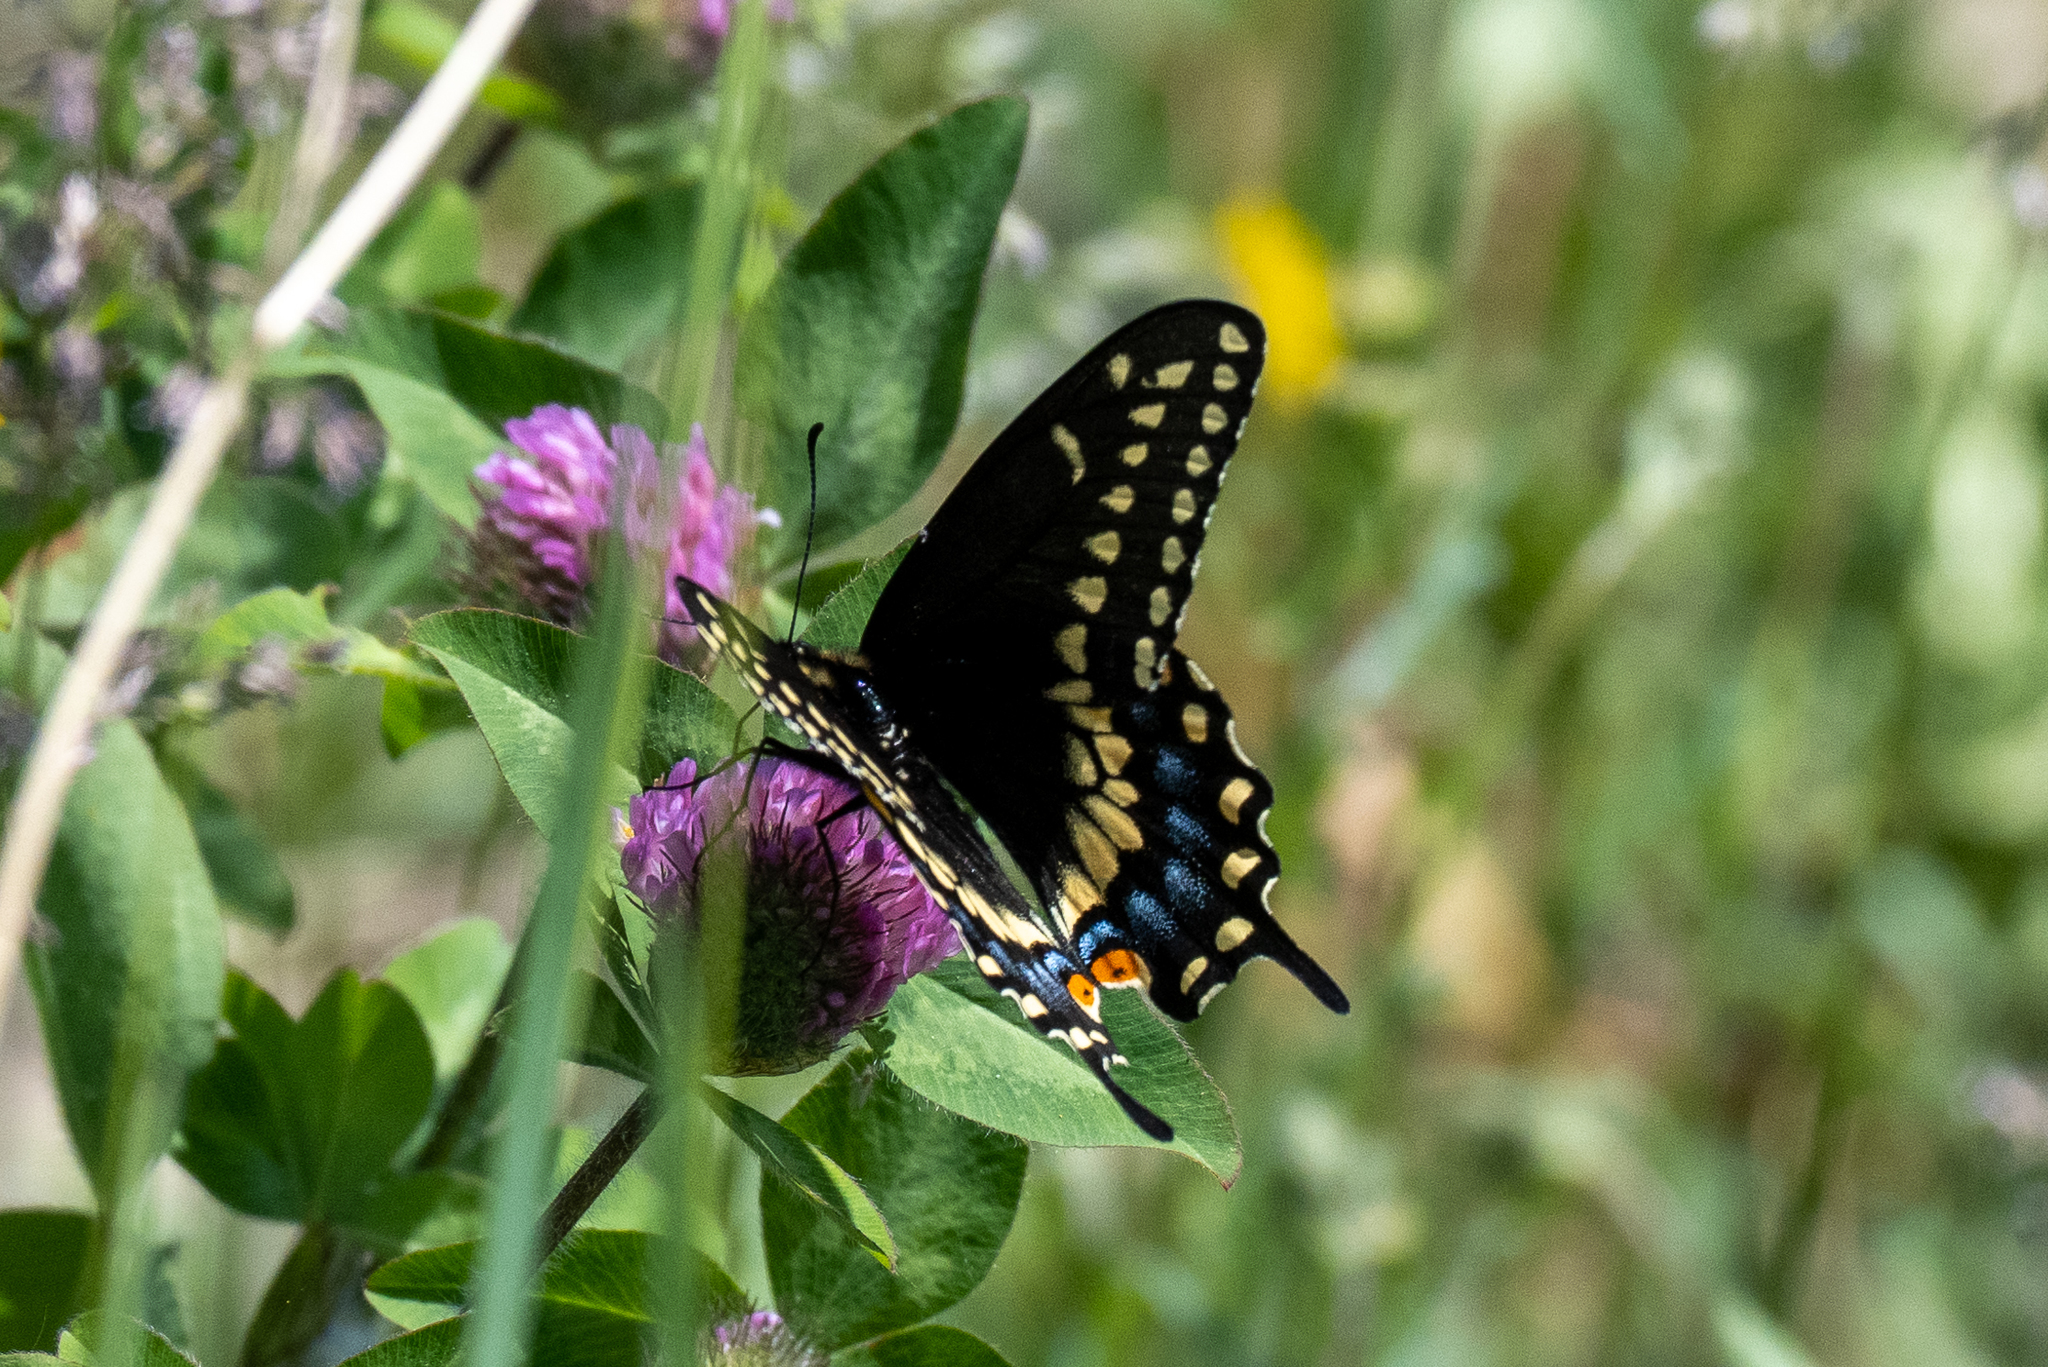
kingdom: Animalia
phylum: Arthropoda
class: Insecta
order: Lepidoptera
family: Papilionidae
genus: Papilio
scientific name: Papilio polyxenes
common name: Black swallowtail
